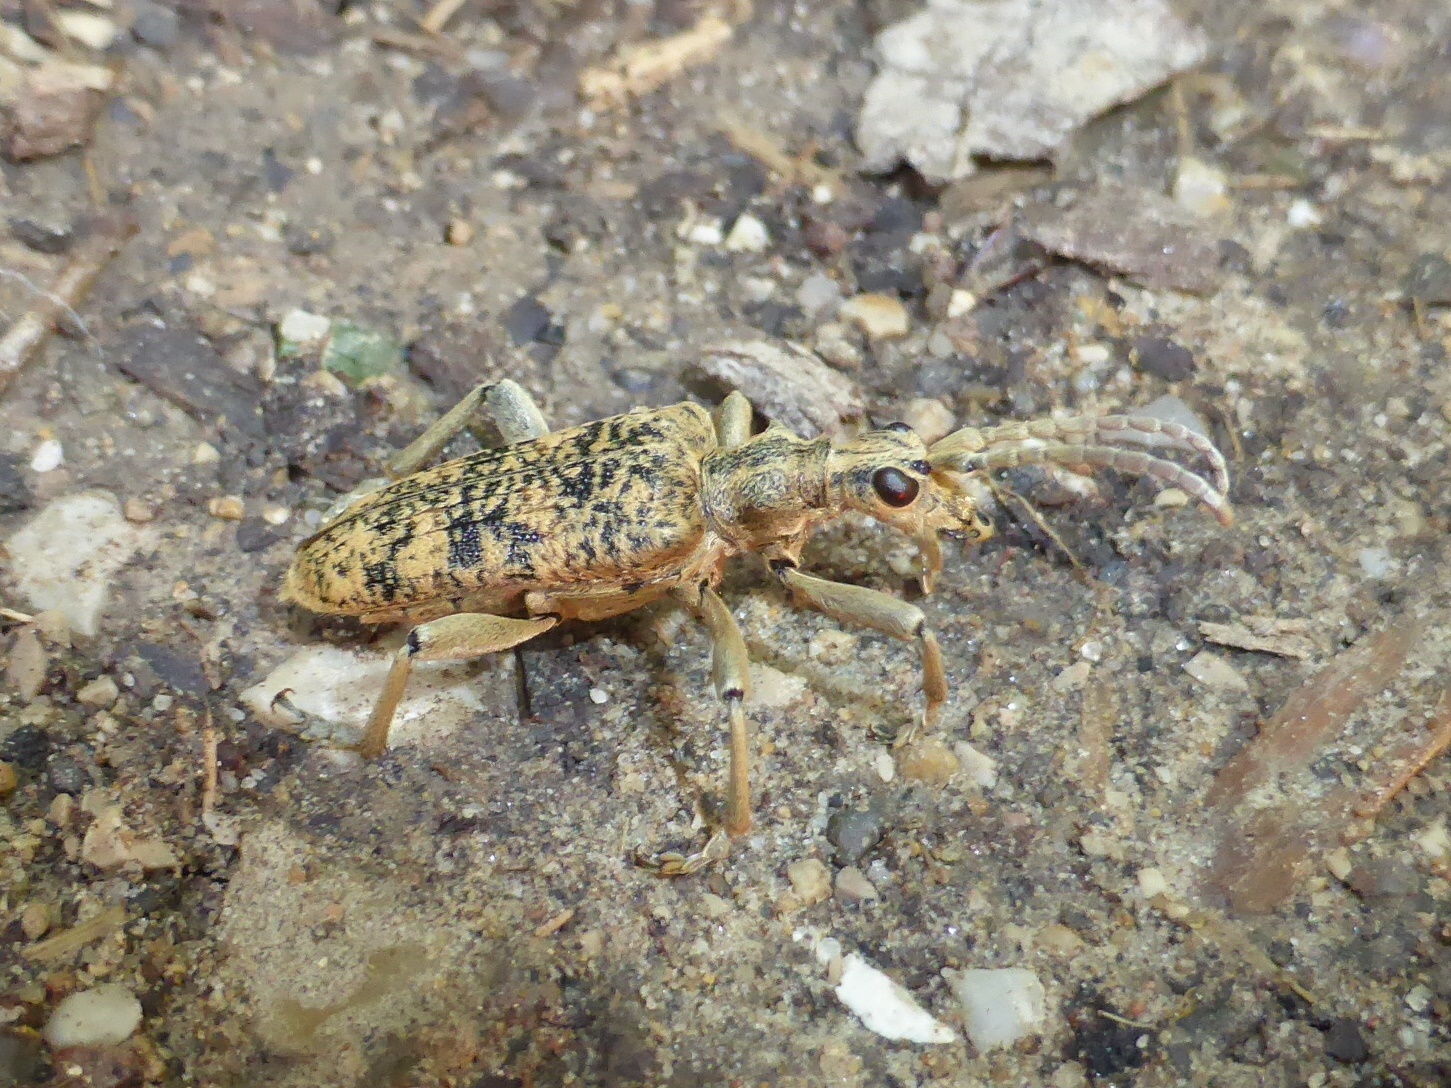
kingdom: Animalia
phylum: Arthropoda
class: Insecta
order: Coleoptera
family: Cerambycidae
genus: Rhagium
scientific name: Rhagium sycophanta
